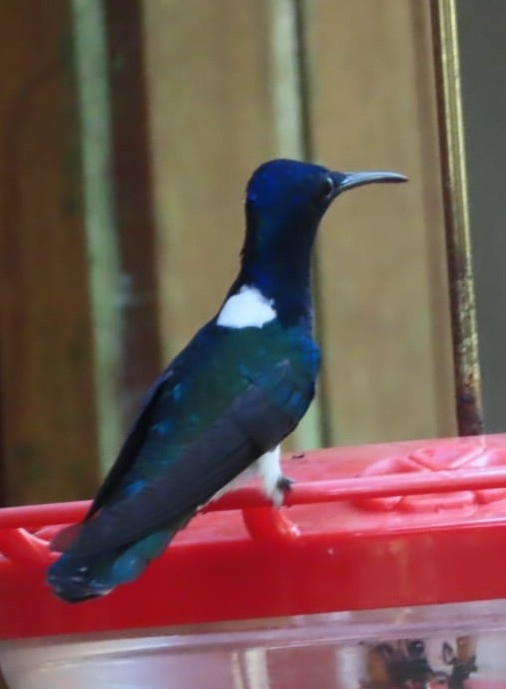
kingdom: Animalia
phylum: Chordata
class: Aves
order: Apodiformes
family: Trochilidae
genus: Florisuga
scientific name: Florisuga mellivora
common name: White-necked jacobin
